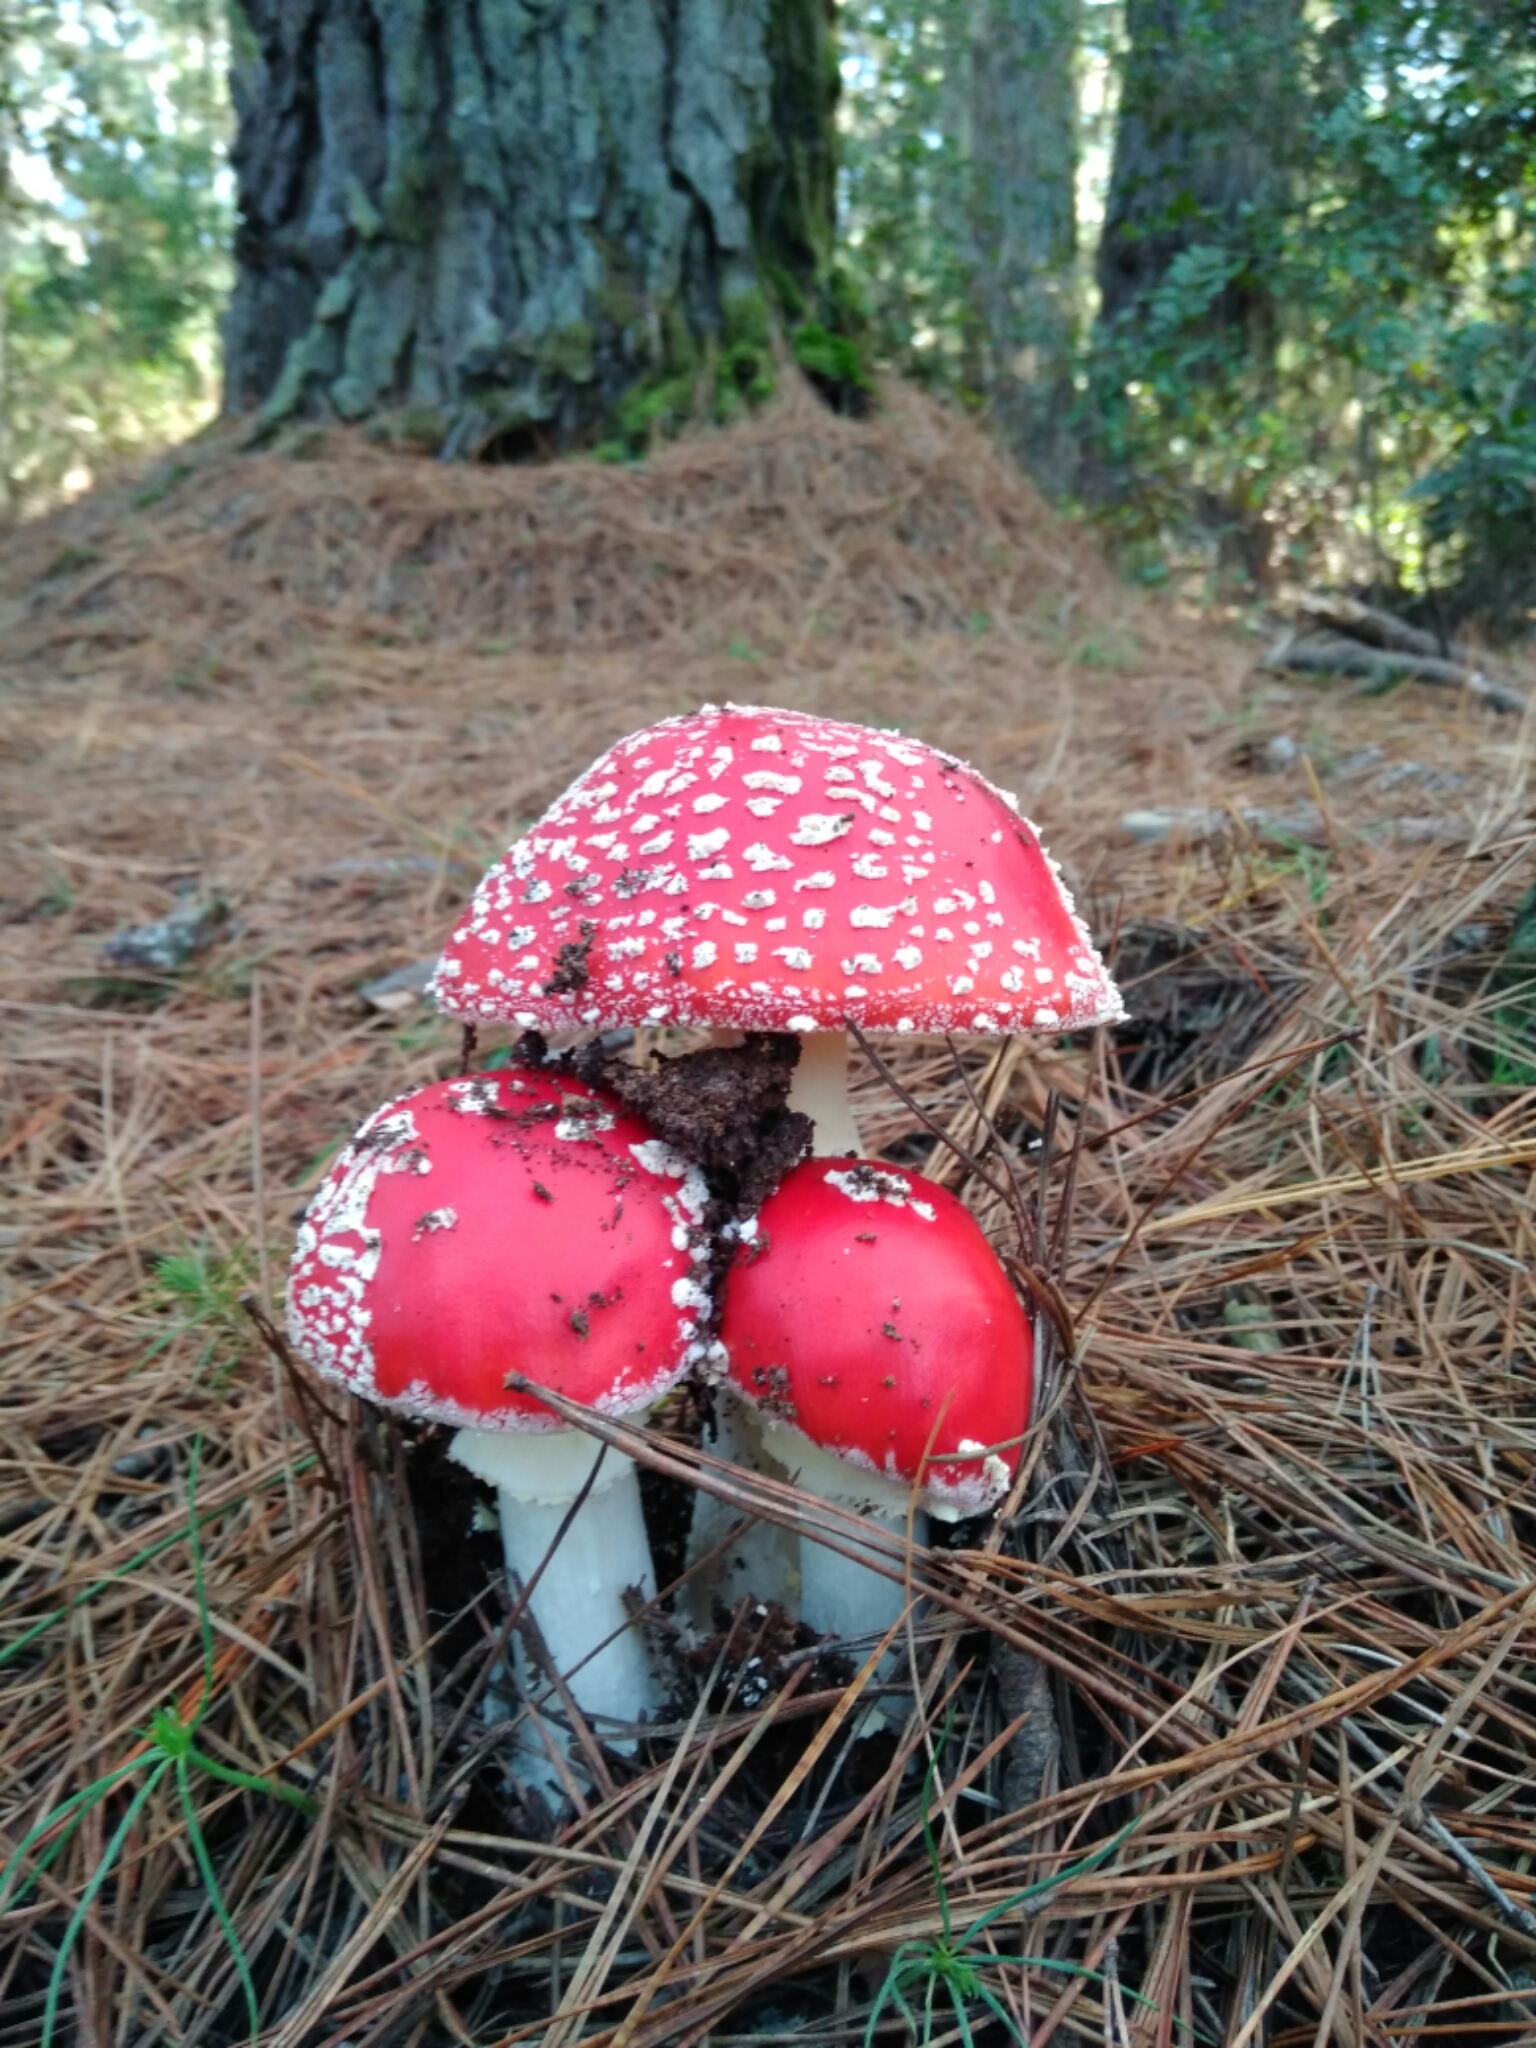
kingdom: Fungi
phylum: Basidiomycota
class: Agaricomycetes
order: Agaricales
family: Amanitaceae
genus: Amanita
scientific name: Amanita muscaria
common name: Fly agaric
